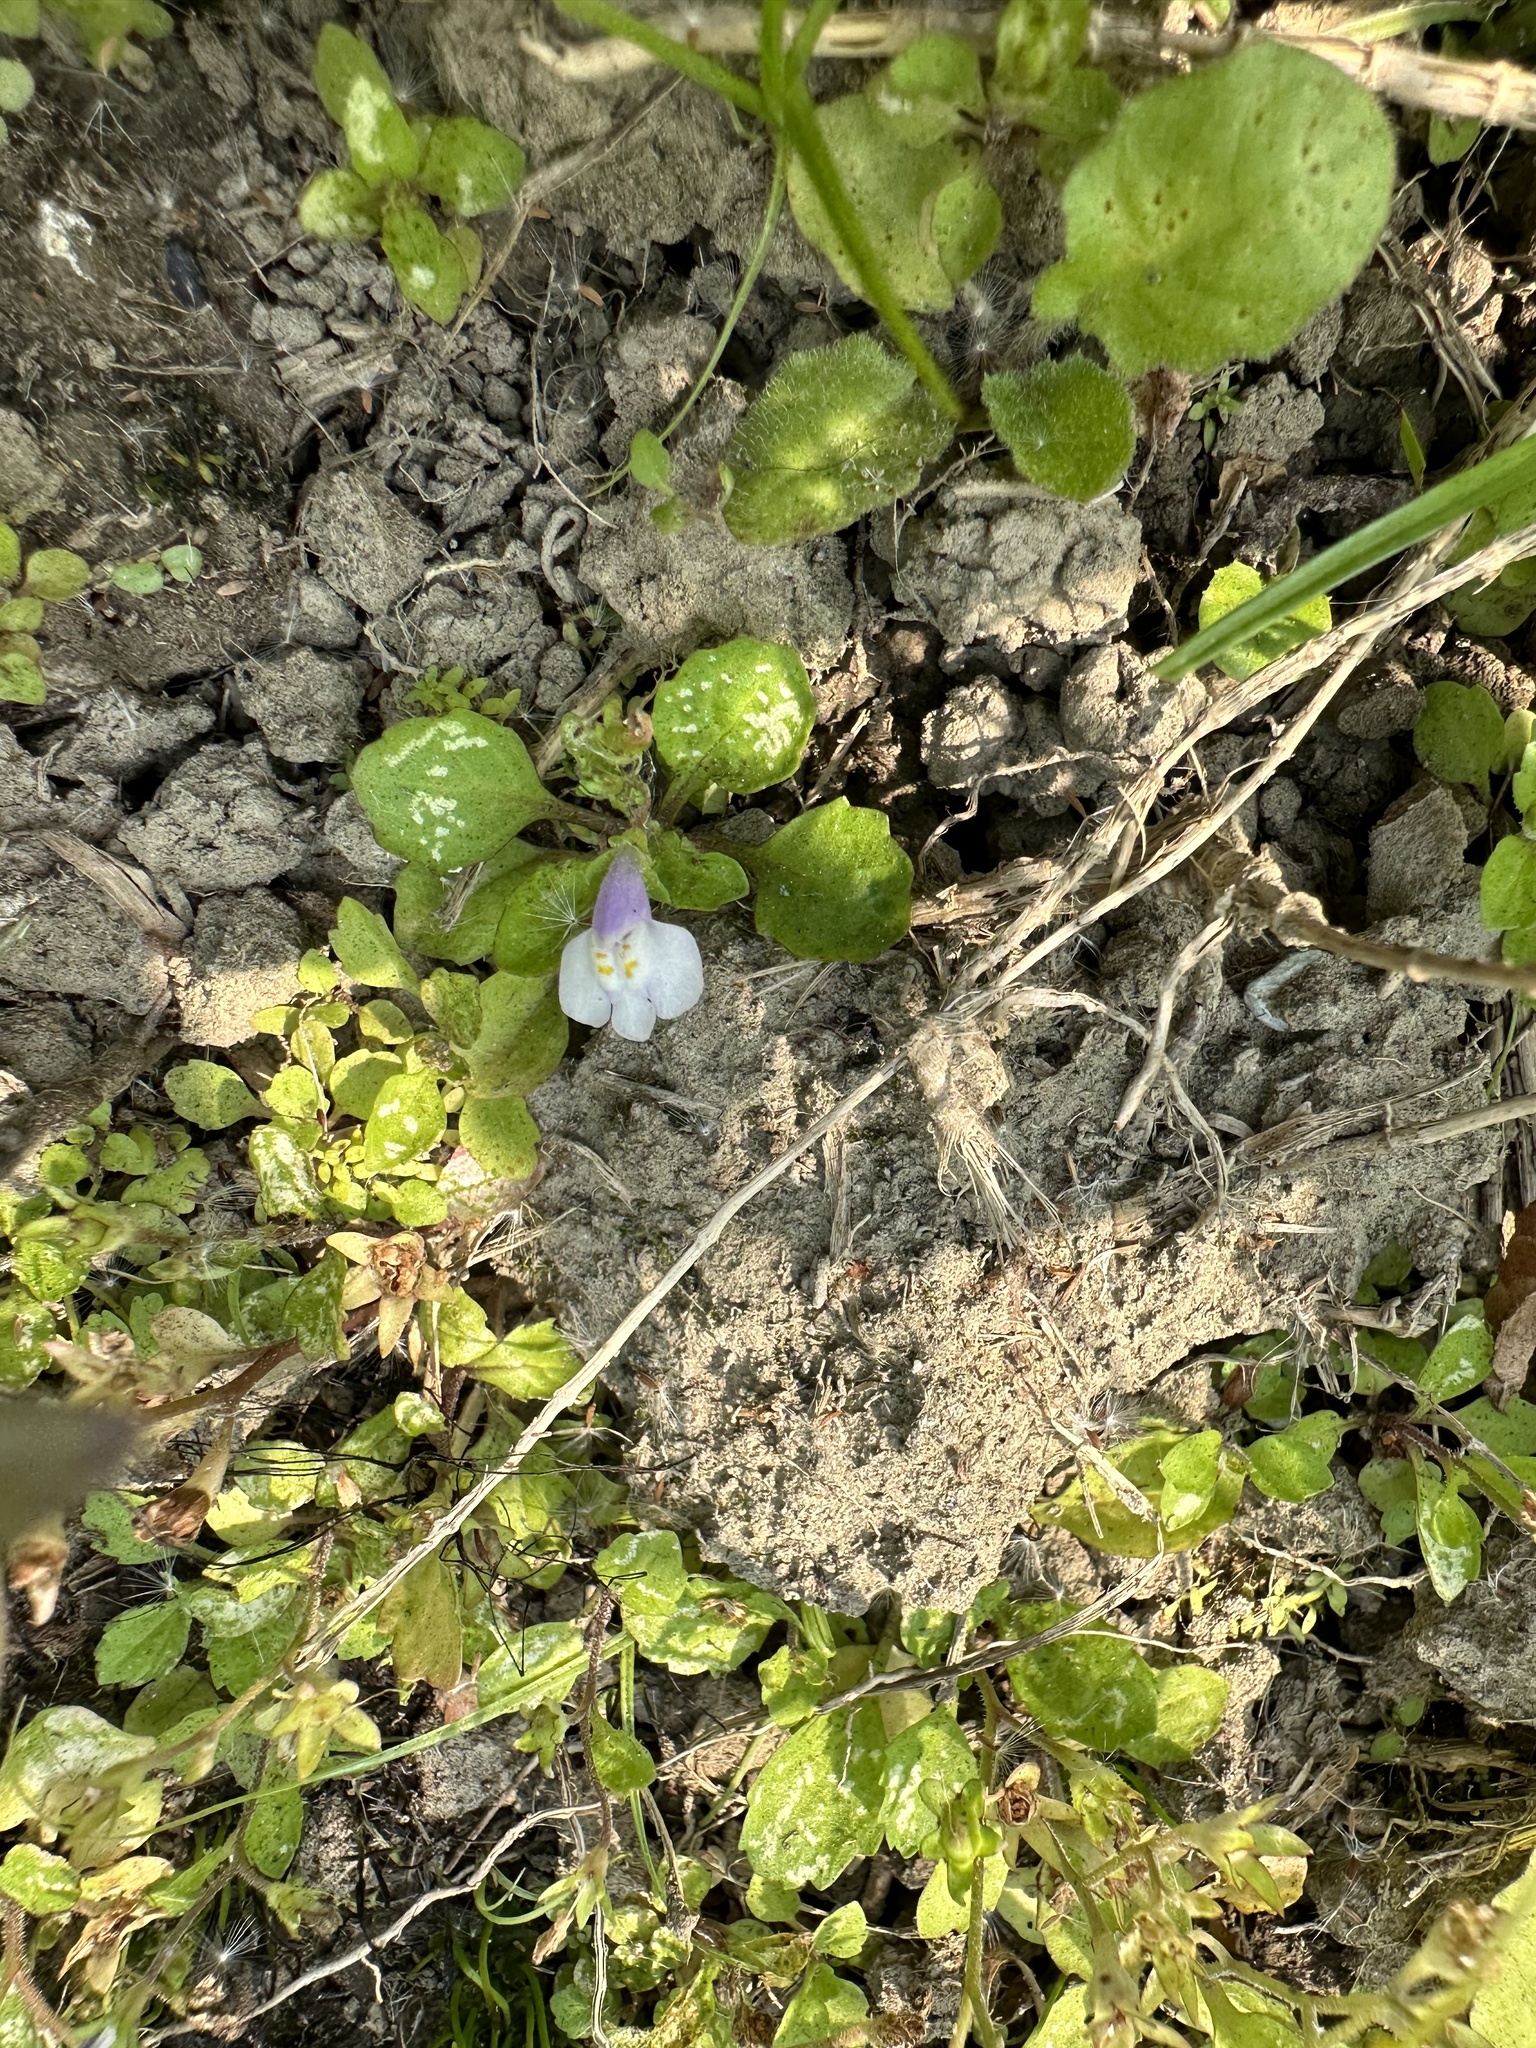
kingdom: Plantae
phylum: Tracheophyta
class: Magnoliopsida
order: Lamiales
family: Mazaceae
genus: Mazus
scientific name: Mazus pumilus
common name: Japanese mazus
